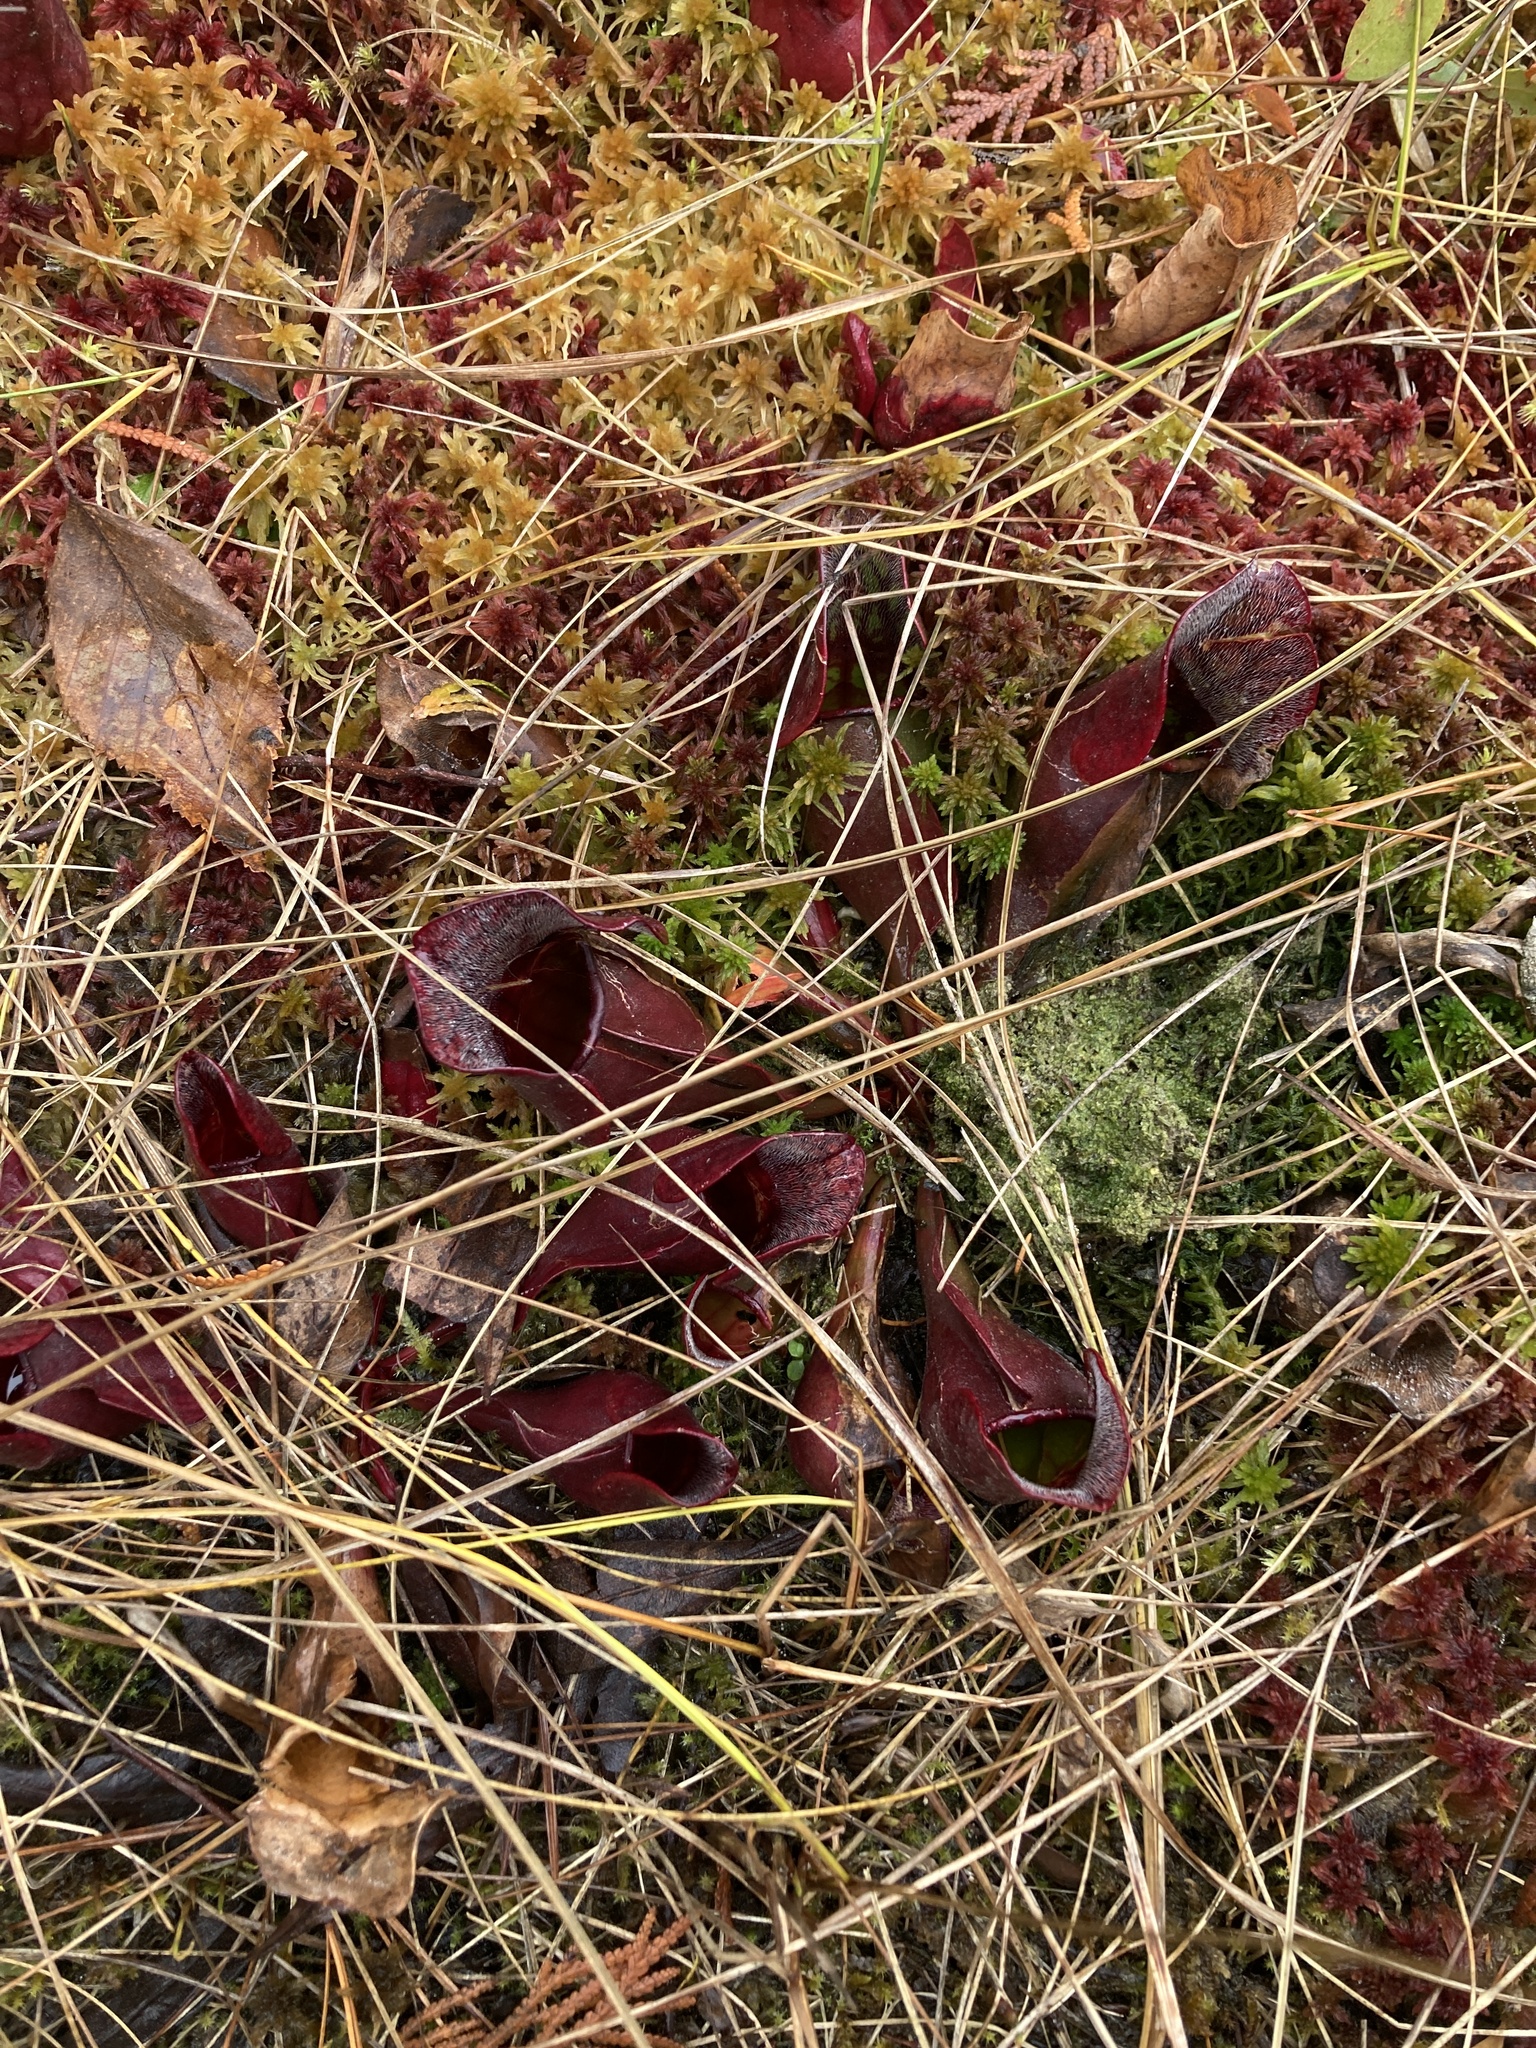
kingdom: Plantae
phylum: Tracheophyta
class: Magnoliopsida
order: Ericales
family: Sarraceniaceae
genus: Sarracenia
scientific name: Sarracenia purpurea
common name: Pitcherplant
